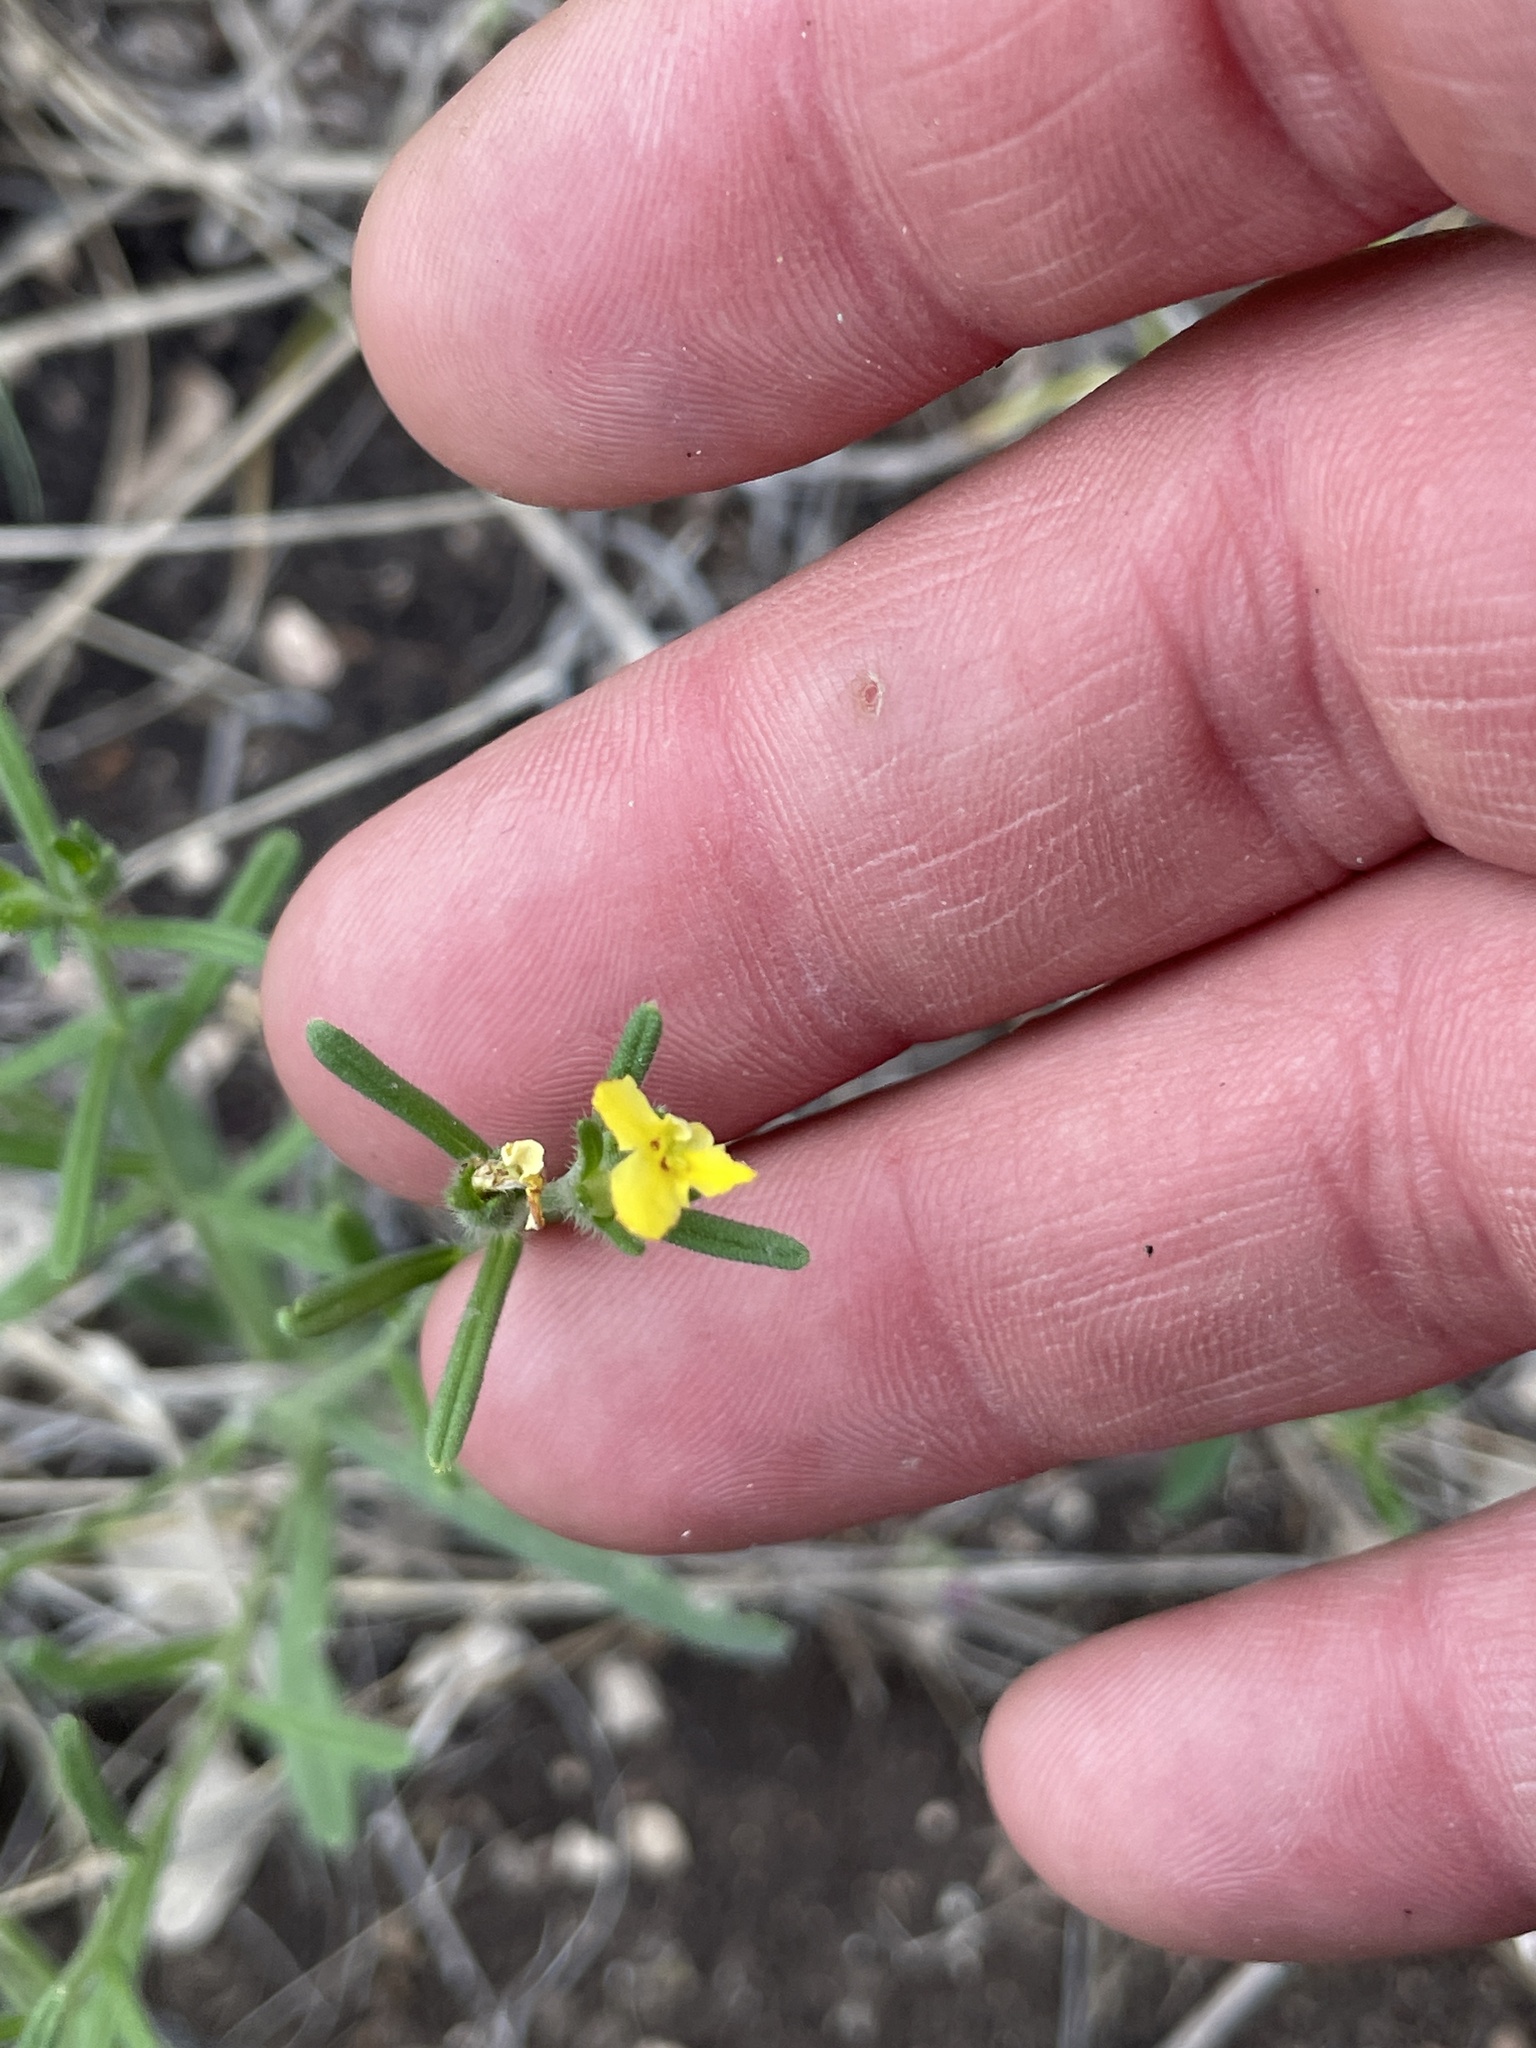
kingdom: Plantae
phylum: Tracheophyta
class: Magnoliopsida
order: Boraginales
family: Boraginaceae
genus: Lithospermum
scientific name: Lithospermum mirabile
